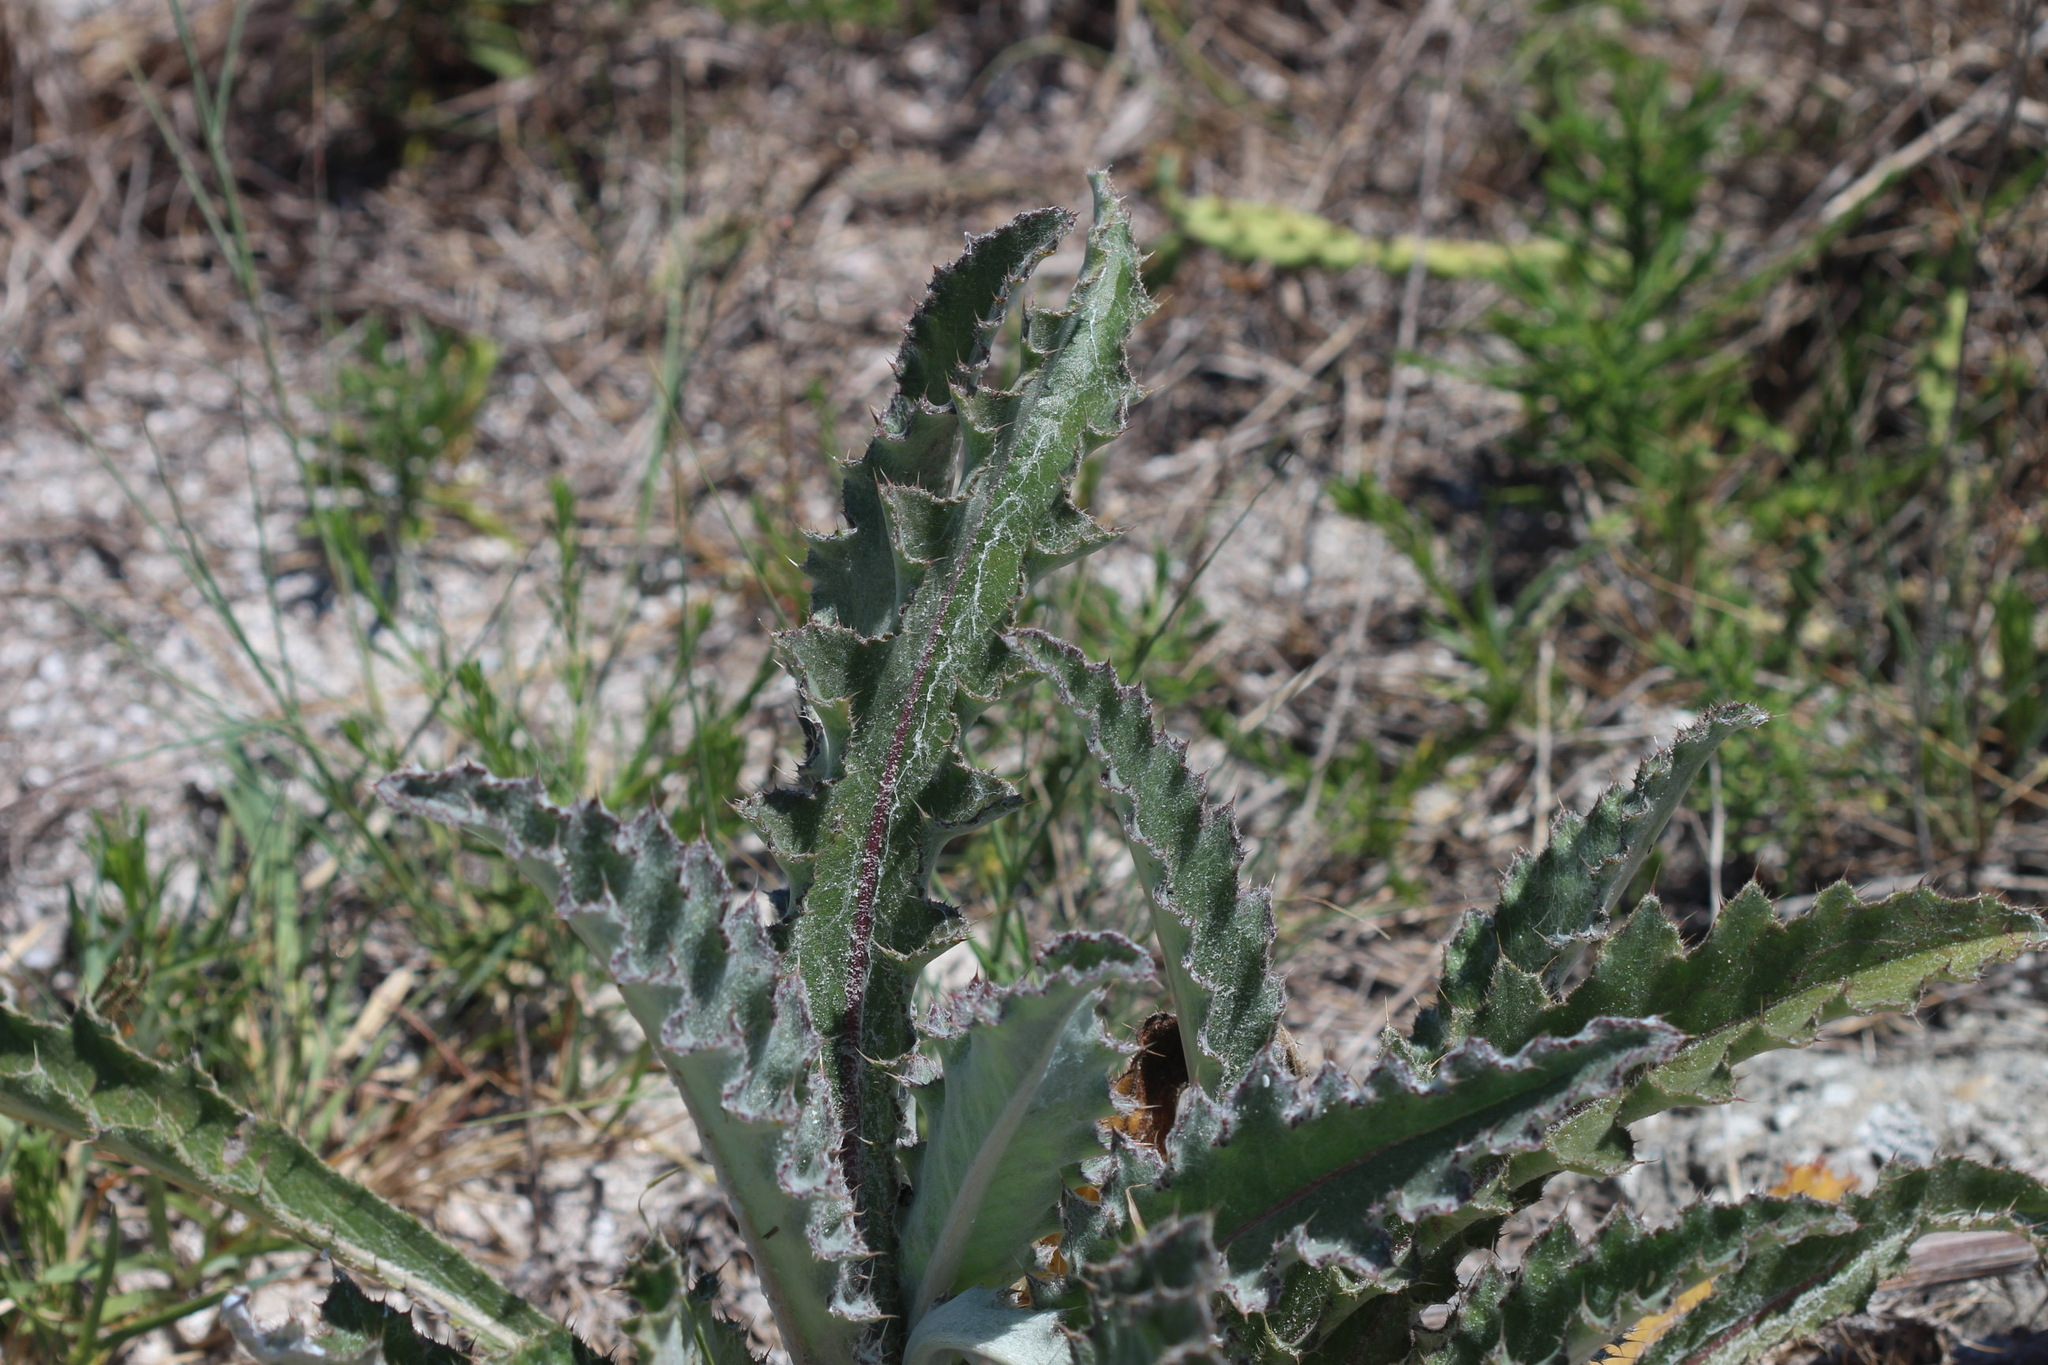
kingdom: Plantae
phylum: Tracheophyta
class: Magnoliopsida
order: Asterales
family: Asteraceae
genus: Cirsium
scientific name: Cirsium horridulum
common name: Bristly thistle
